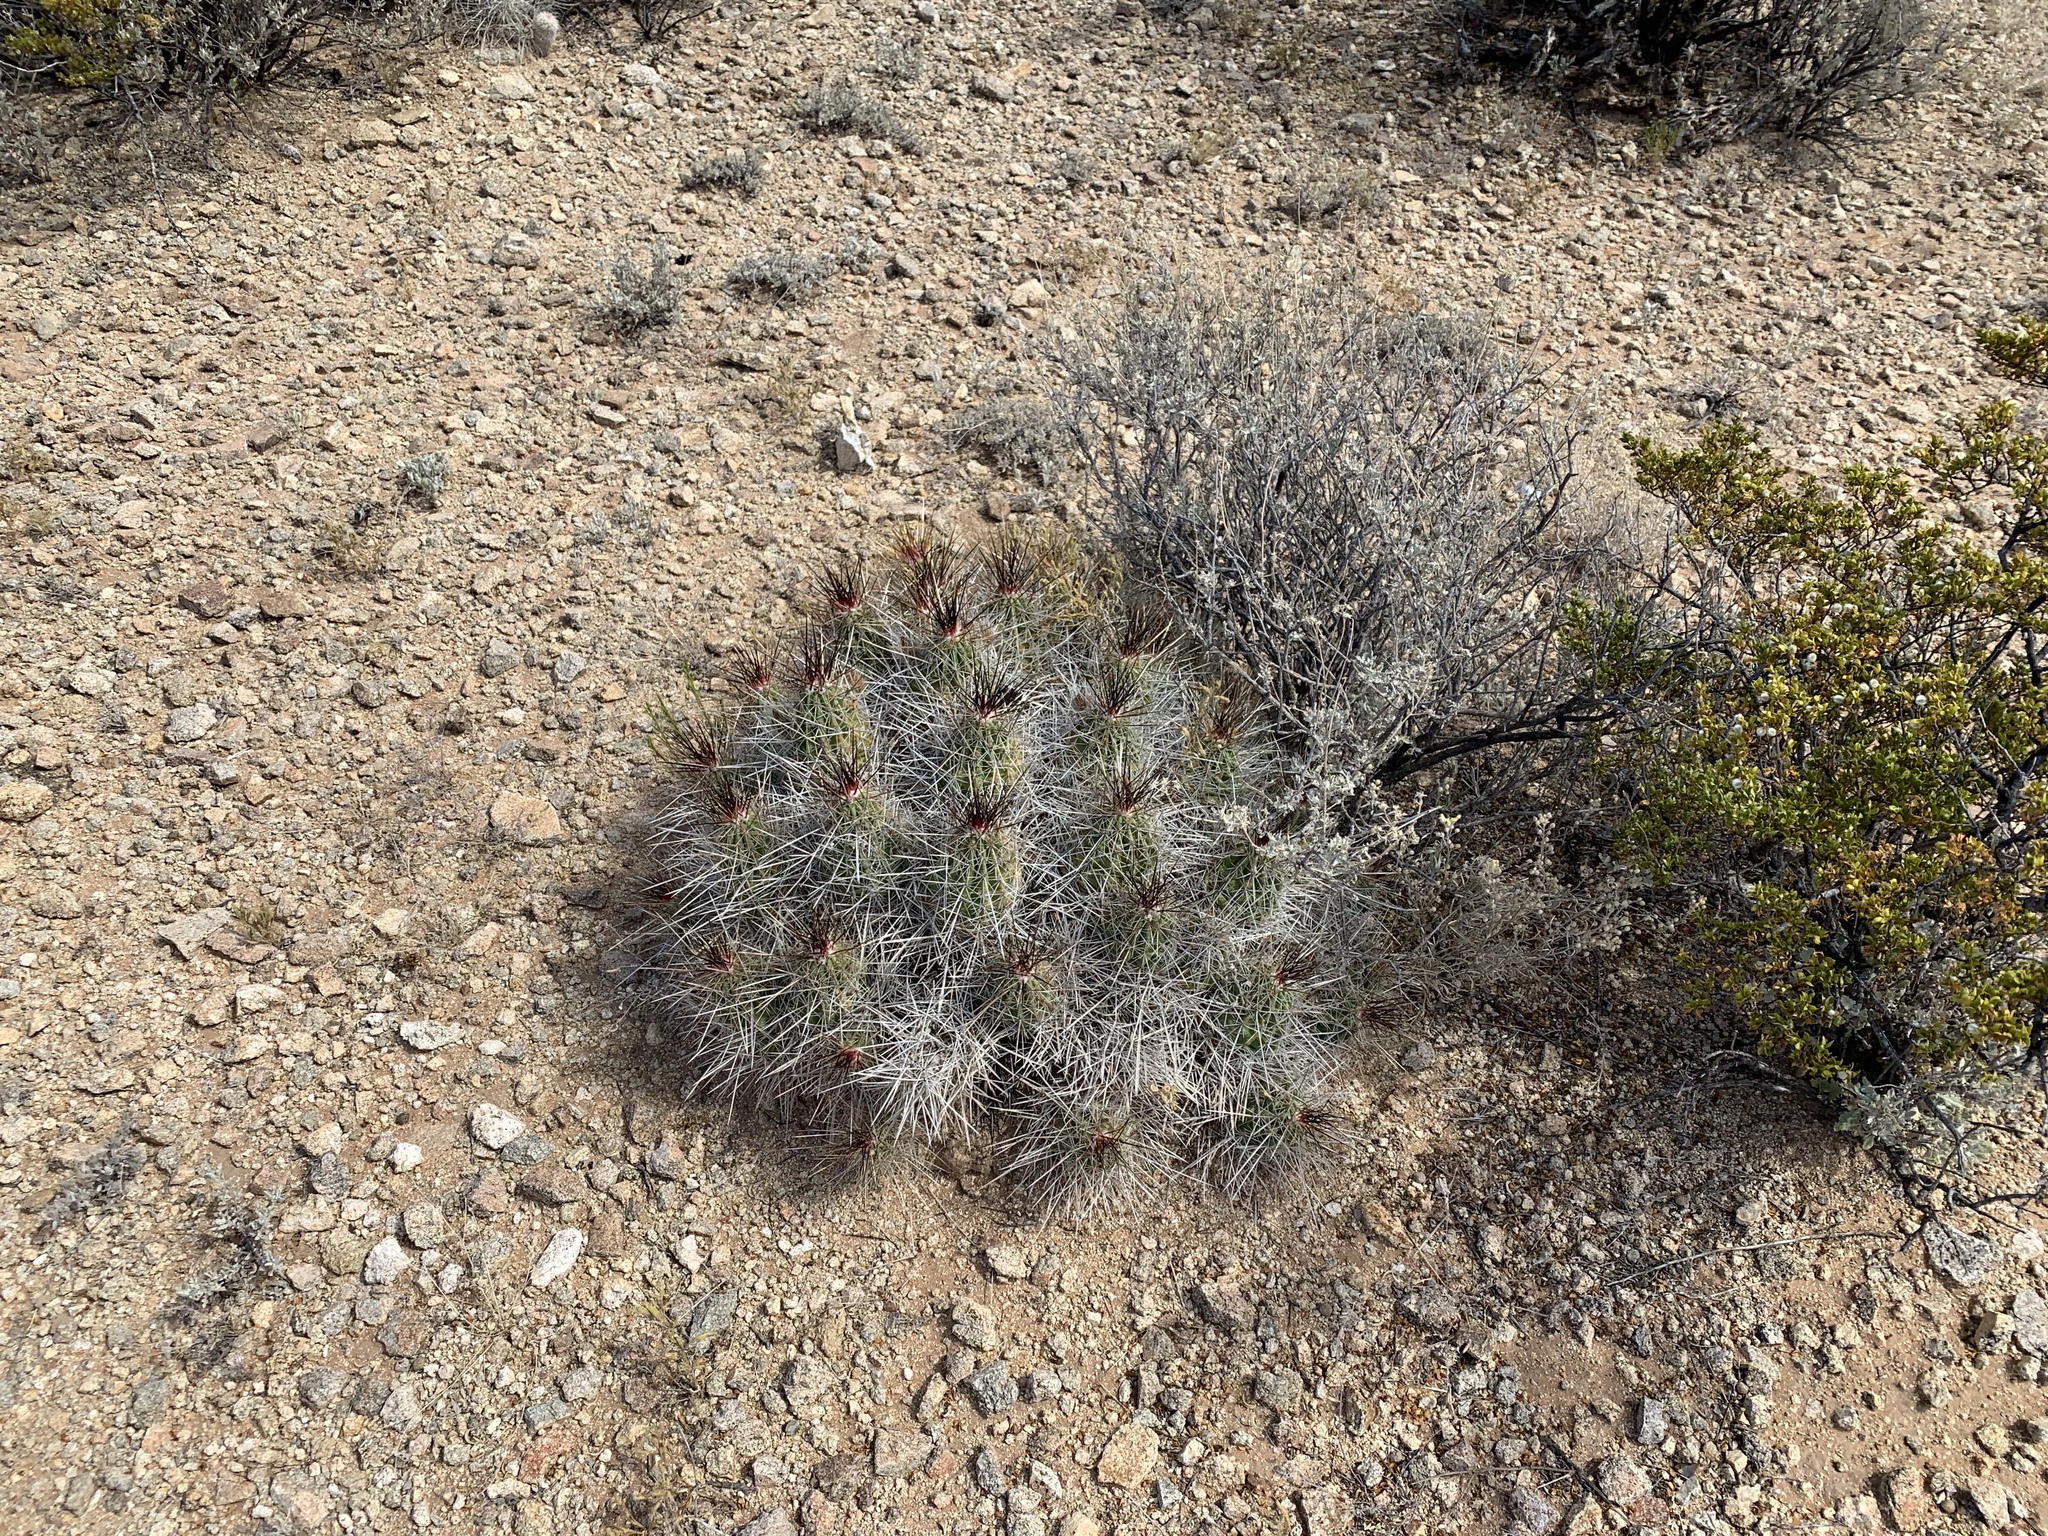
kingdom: Plantae
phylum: Tracheophyta
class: Magnoliopsida
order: Caryophyllales
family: Cactaceae
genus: Echinocereus
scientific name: Echinocereus stramineus
